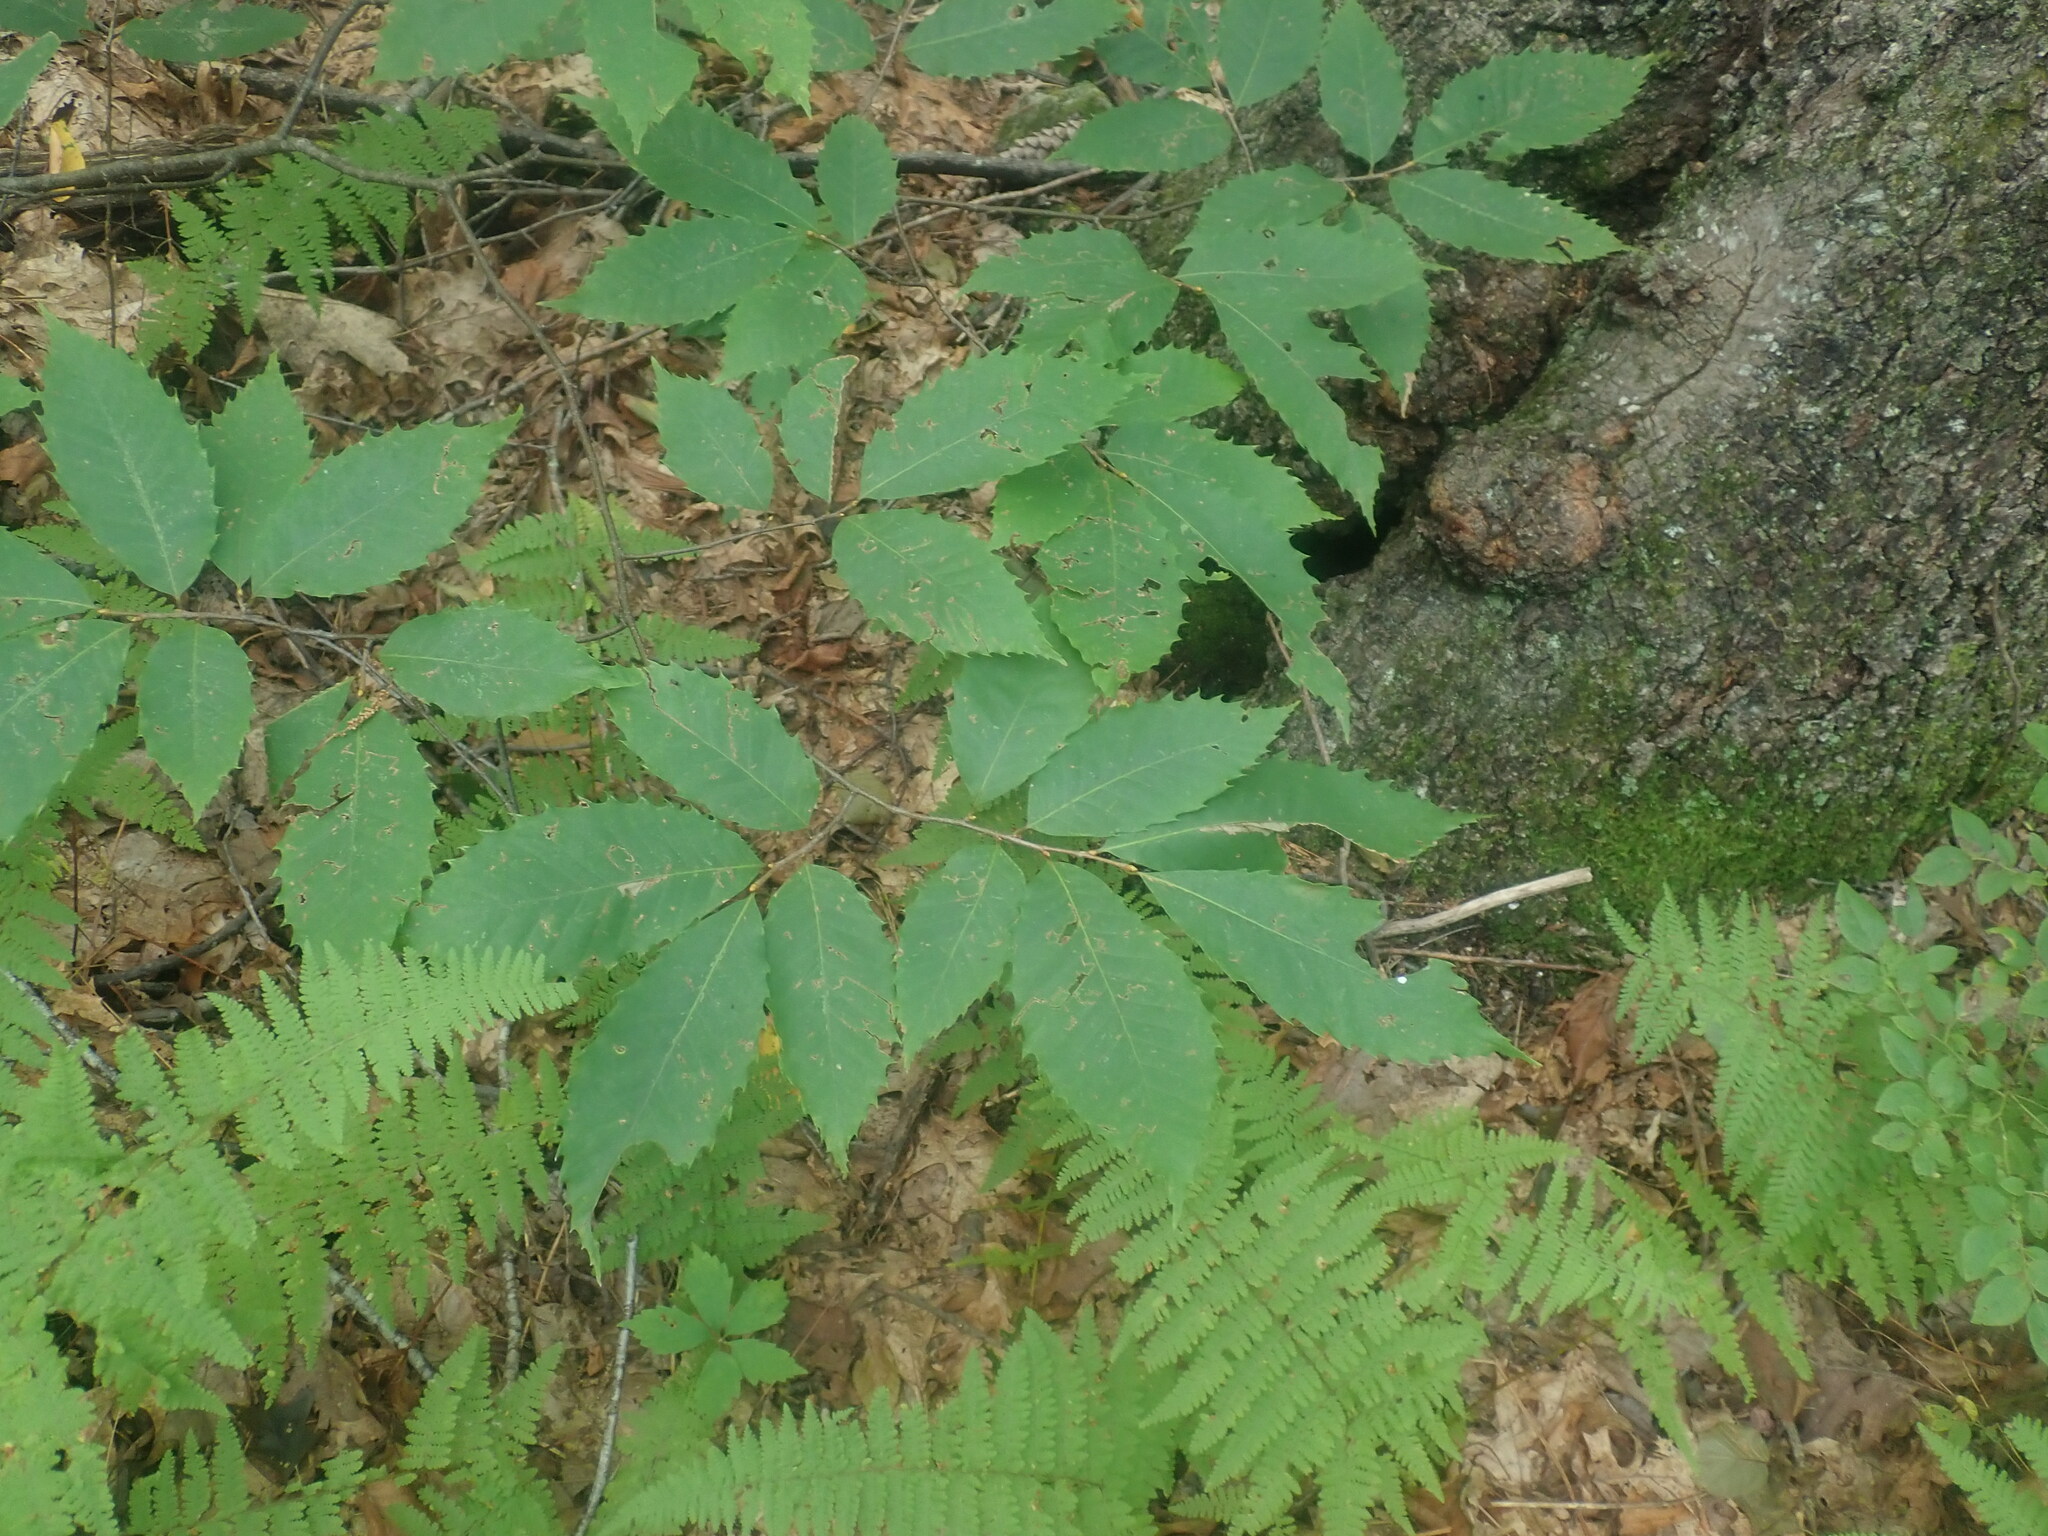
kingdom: Plantae
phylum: Tracheophyta
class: Magnoliopsida
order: Fagales
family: Fagaceae
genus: Castanea
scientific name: Castanea dentata
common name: American chestnut
